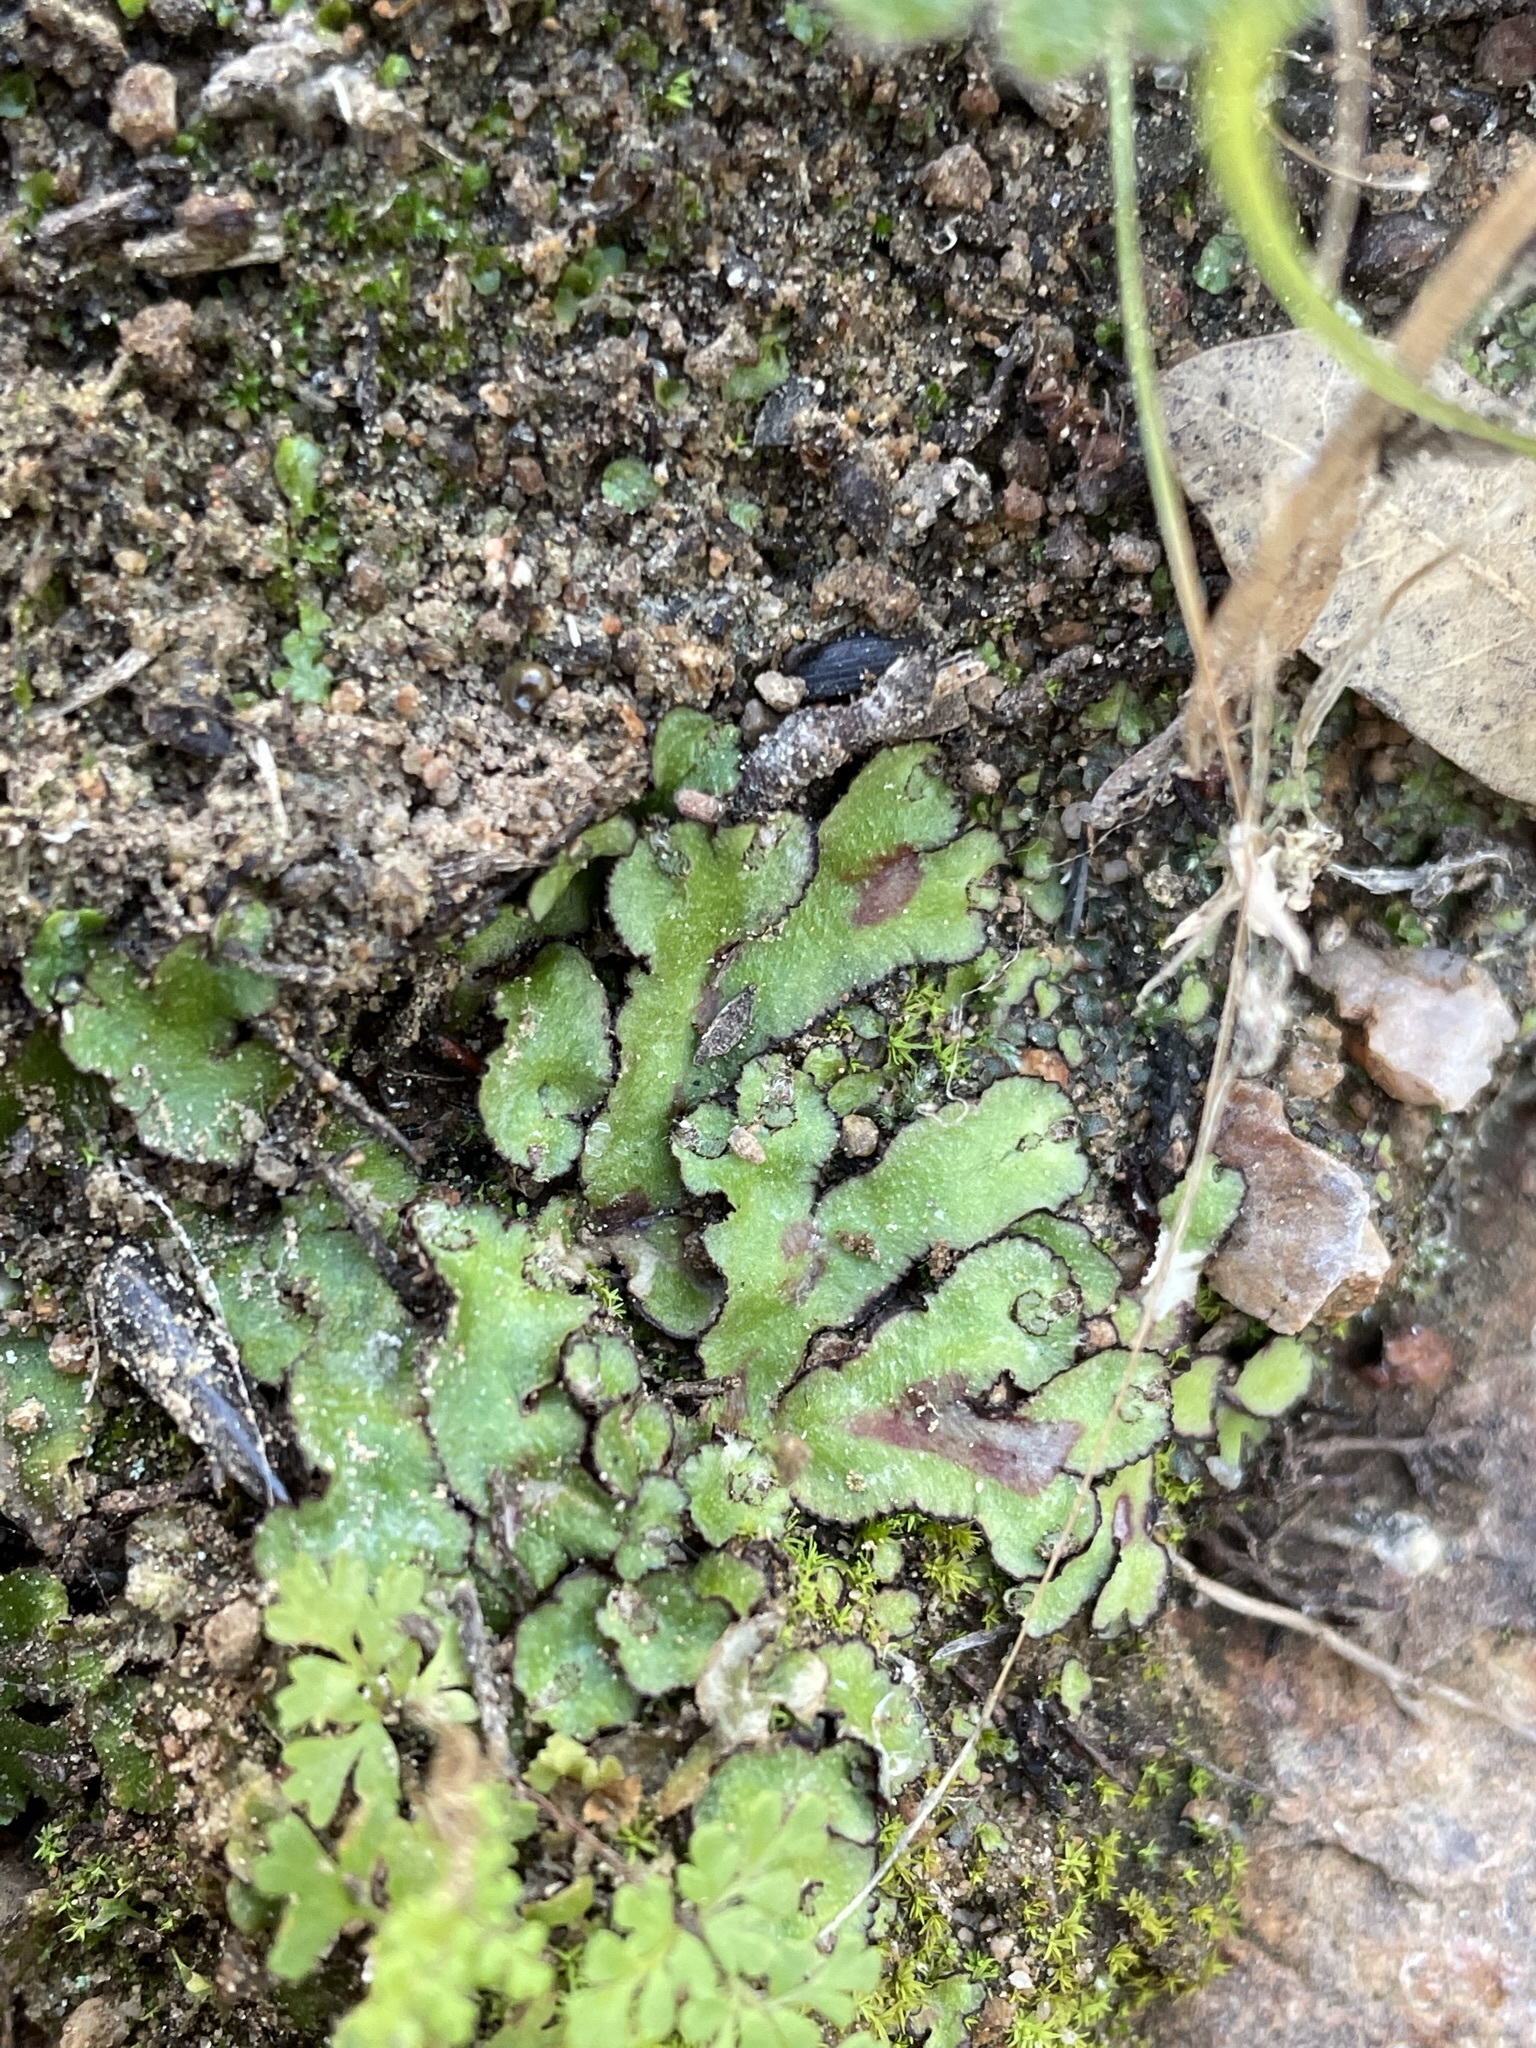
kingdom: Plantae
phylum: Marchantiophyta
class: Marchantiopsida
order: Marchantiales
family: Aytoniaceae
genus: Reboulia
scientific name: Reboulia hemisphaerica
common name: Purple-margined liverwort
